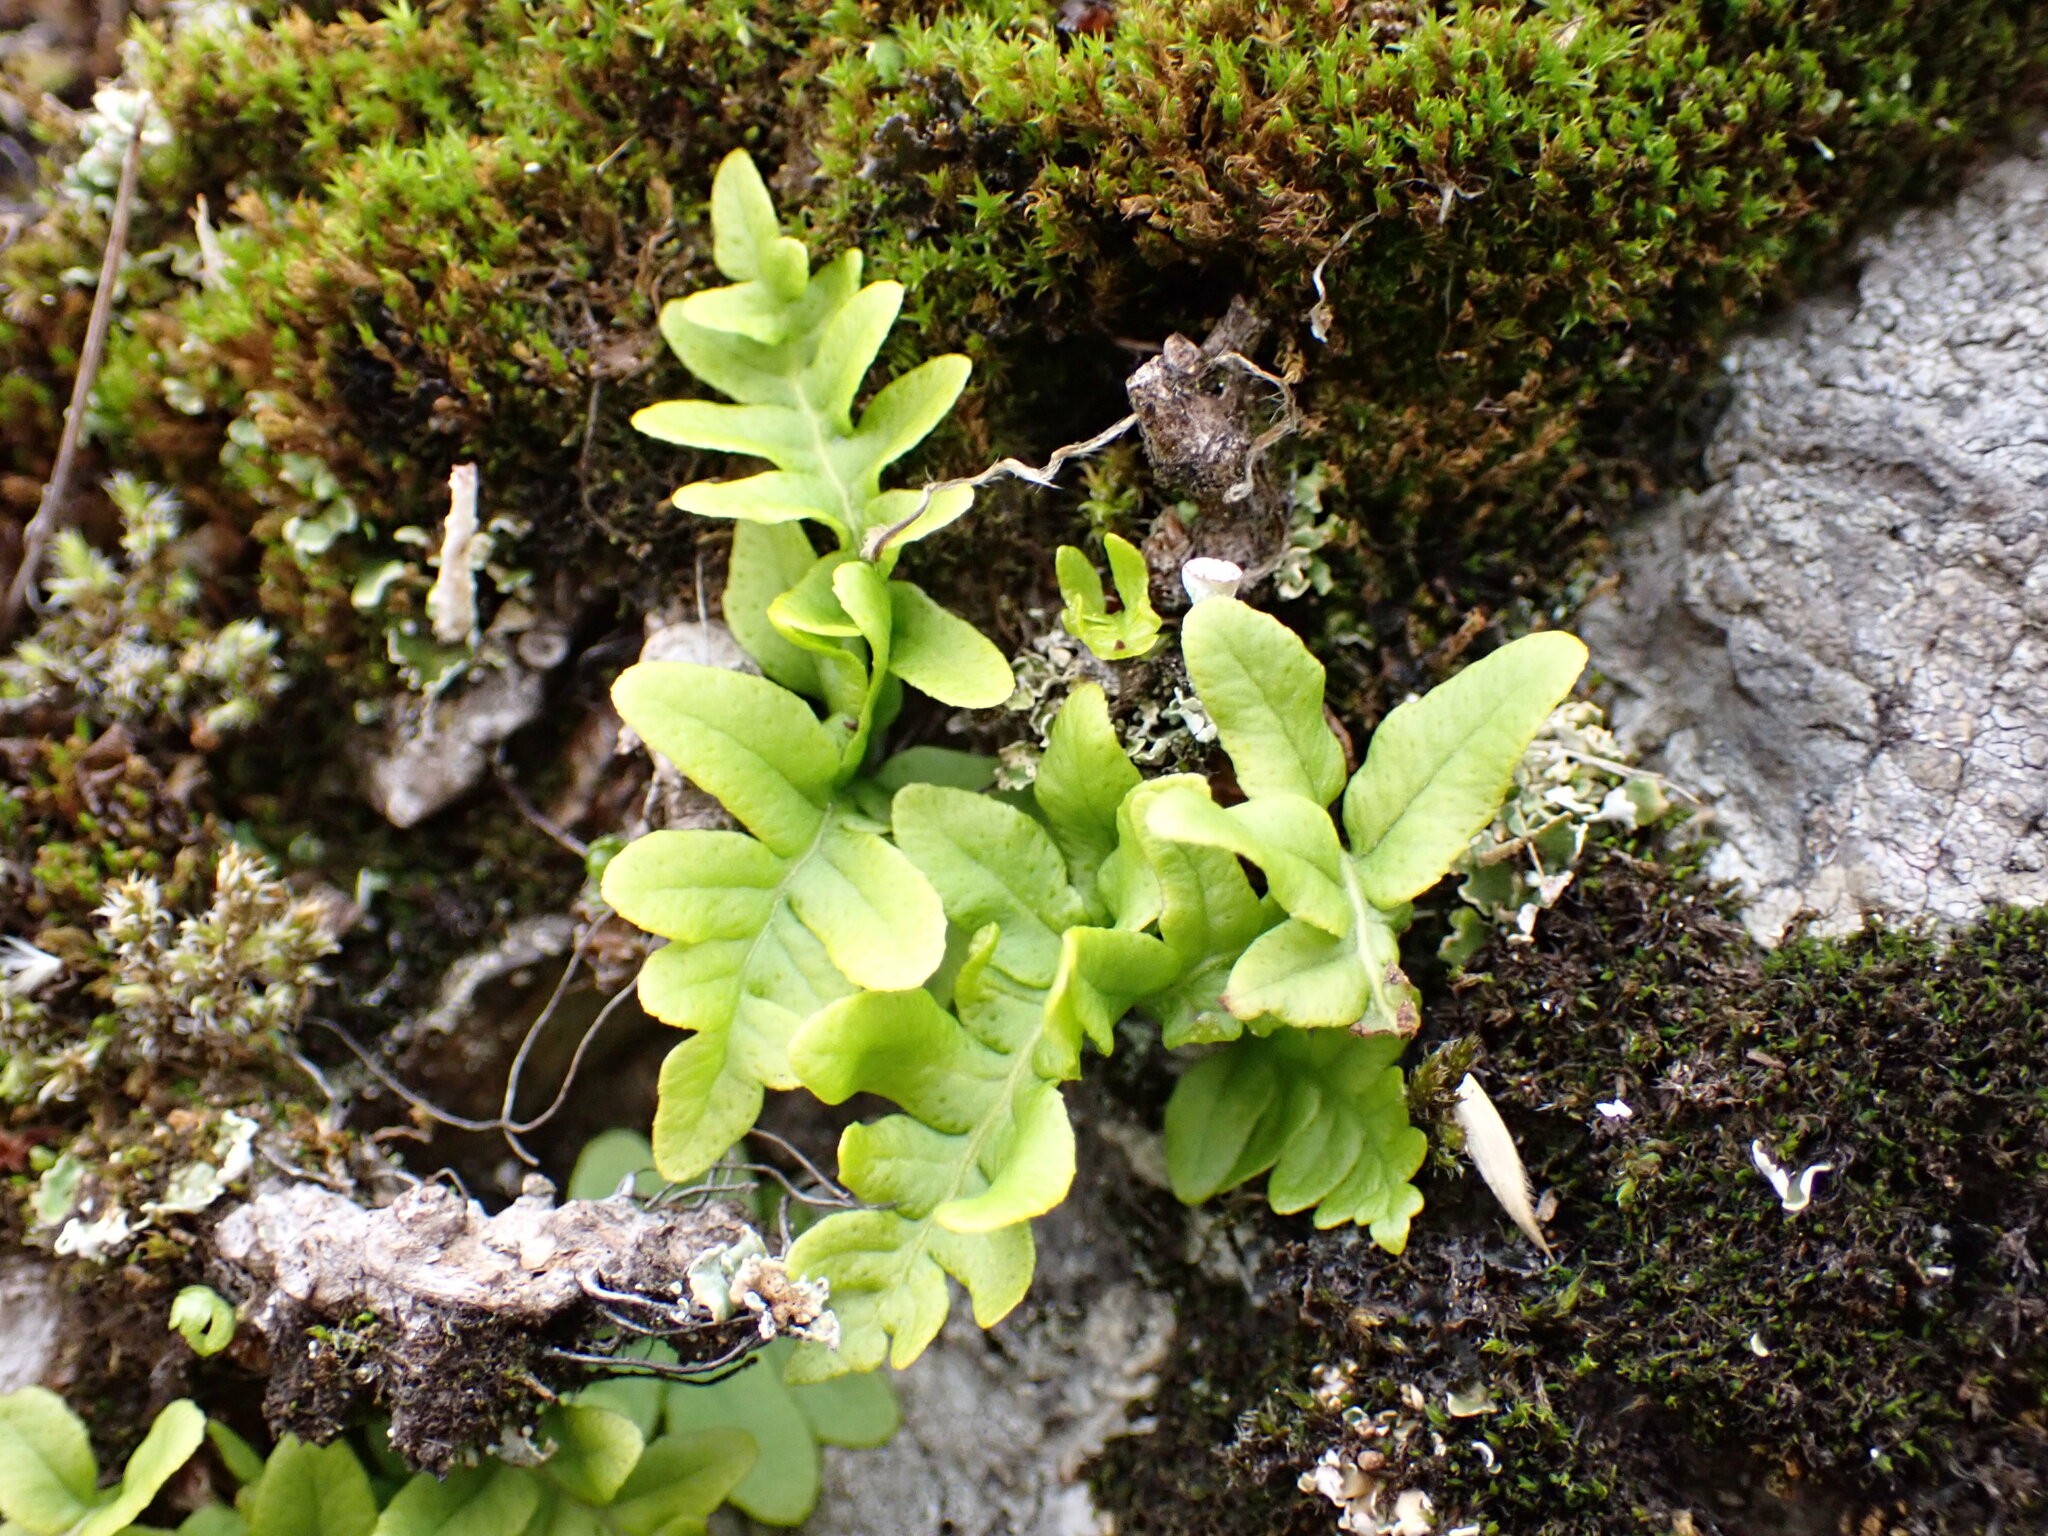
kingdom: Plantae
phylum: Tracheophyta
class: Polypodiopsida
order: Polypodiales
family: Polypodiaceae
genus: Polypodium
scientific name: Polypodium glycyrrhiza
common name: Licorice fern
